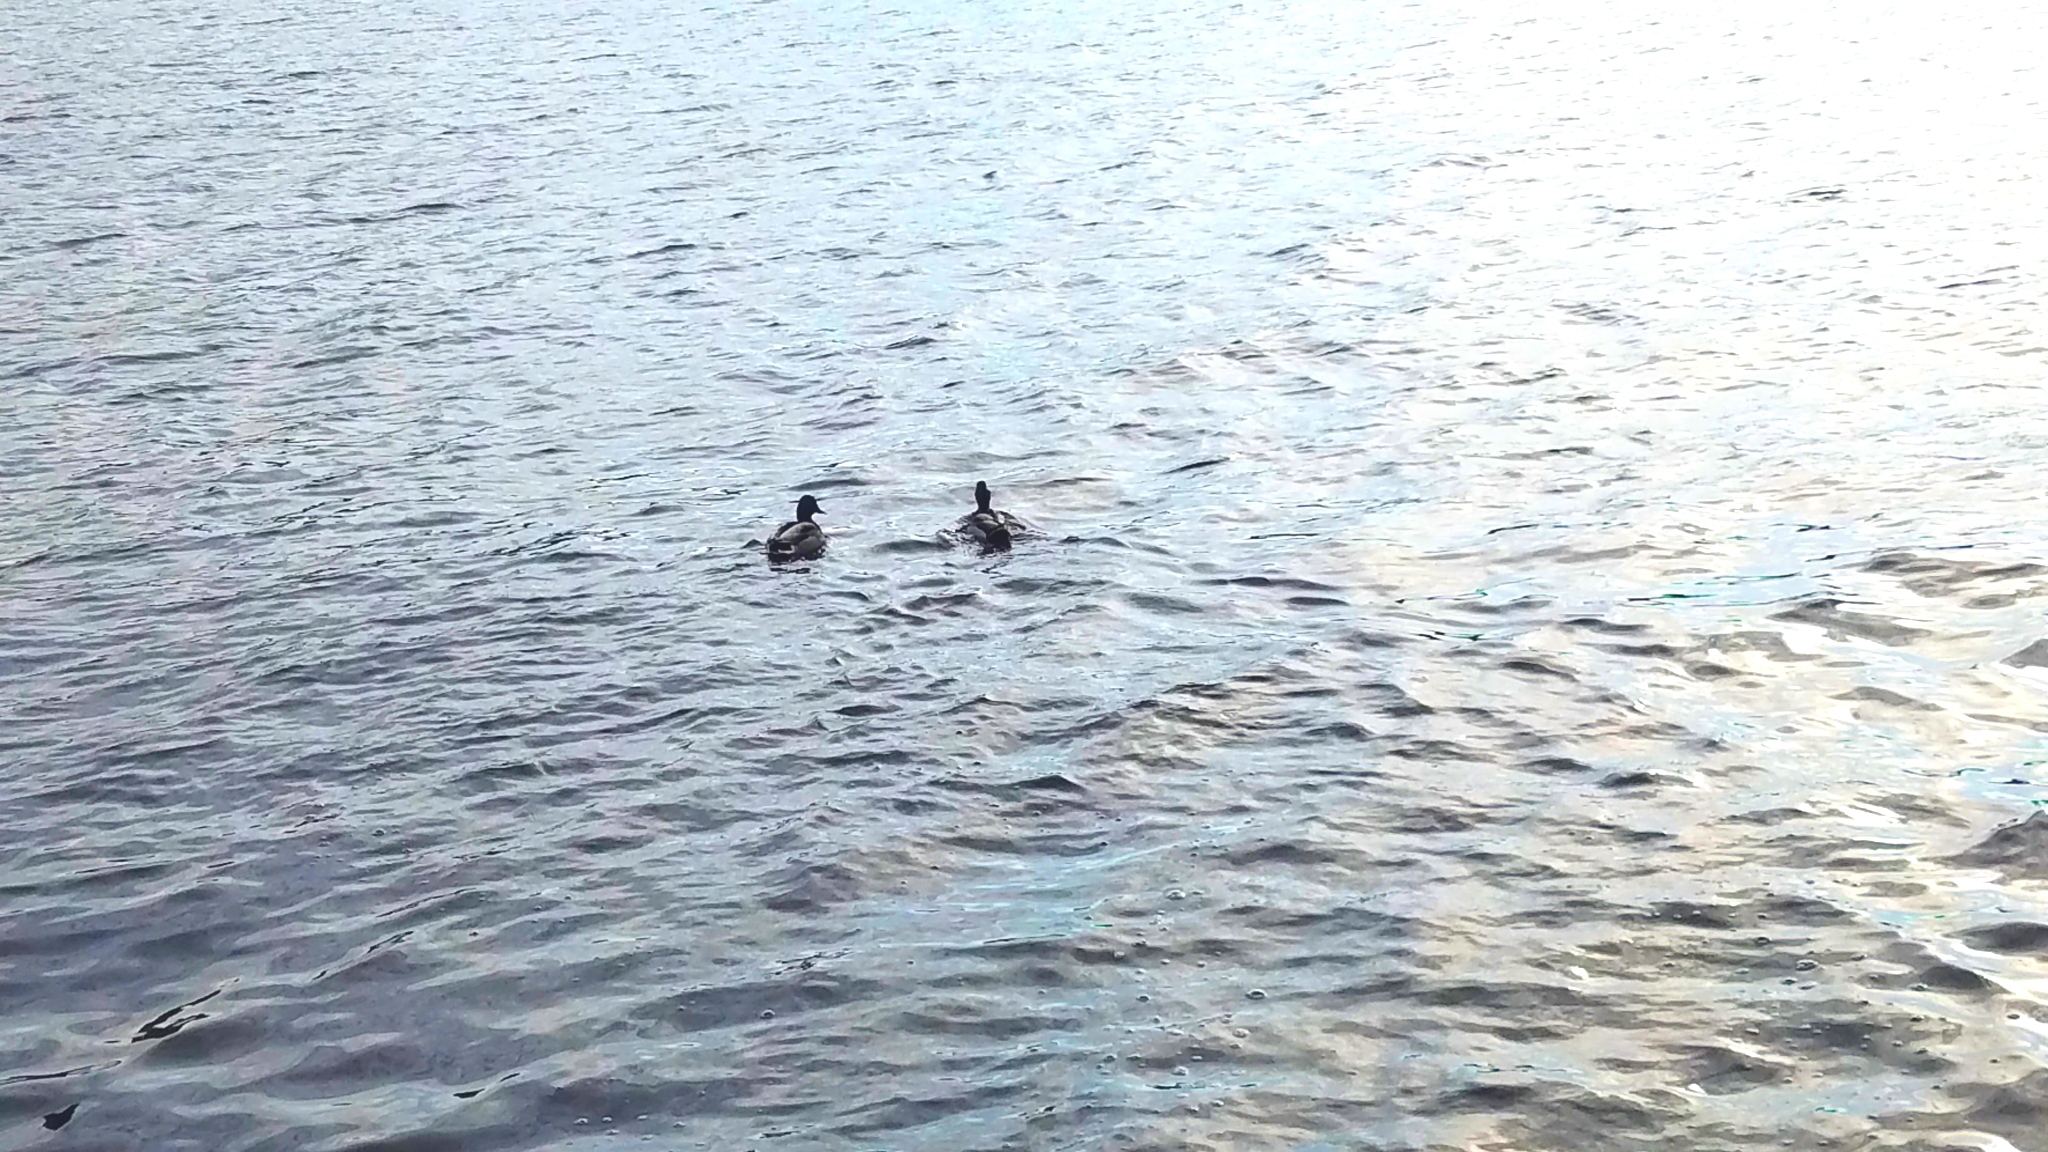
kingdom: Animalia
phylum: Chordata
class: Aves
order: Anseriformes
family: Anatidae
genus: Anas
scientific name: Anas platyrhynchos
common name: Mallard
